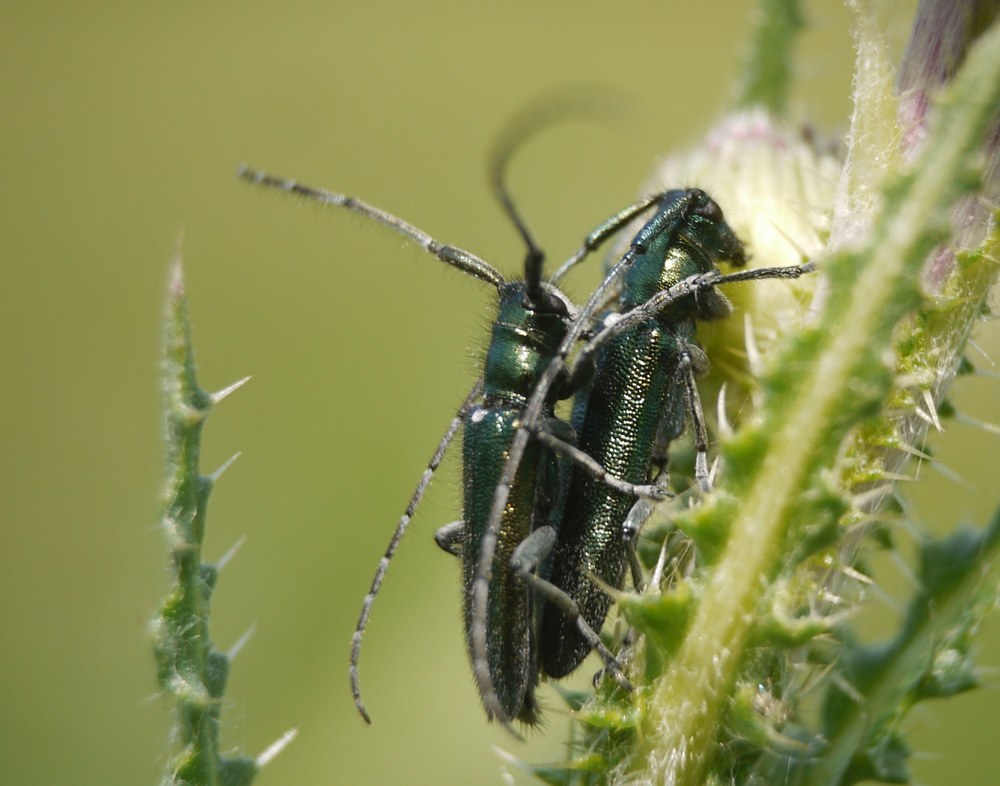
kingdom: Animalia
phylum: Arthropoda
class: Insecta
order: Coleoptera
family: Cerambycidae
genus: Agapanthia
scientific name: Agapanthia violacea
